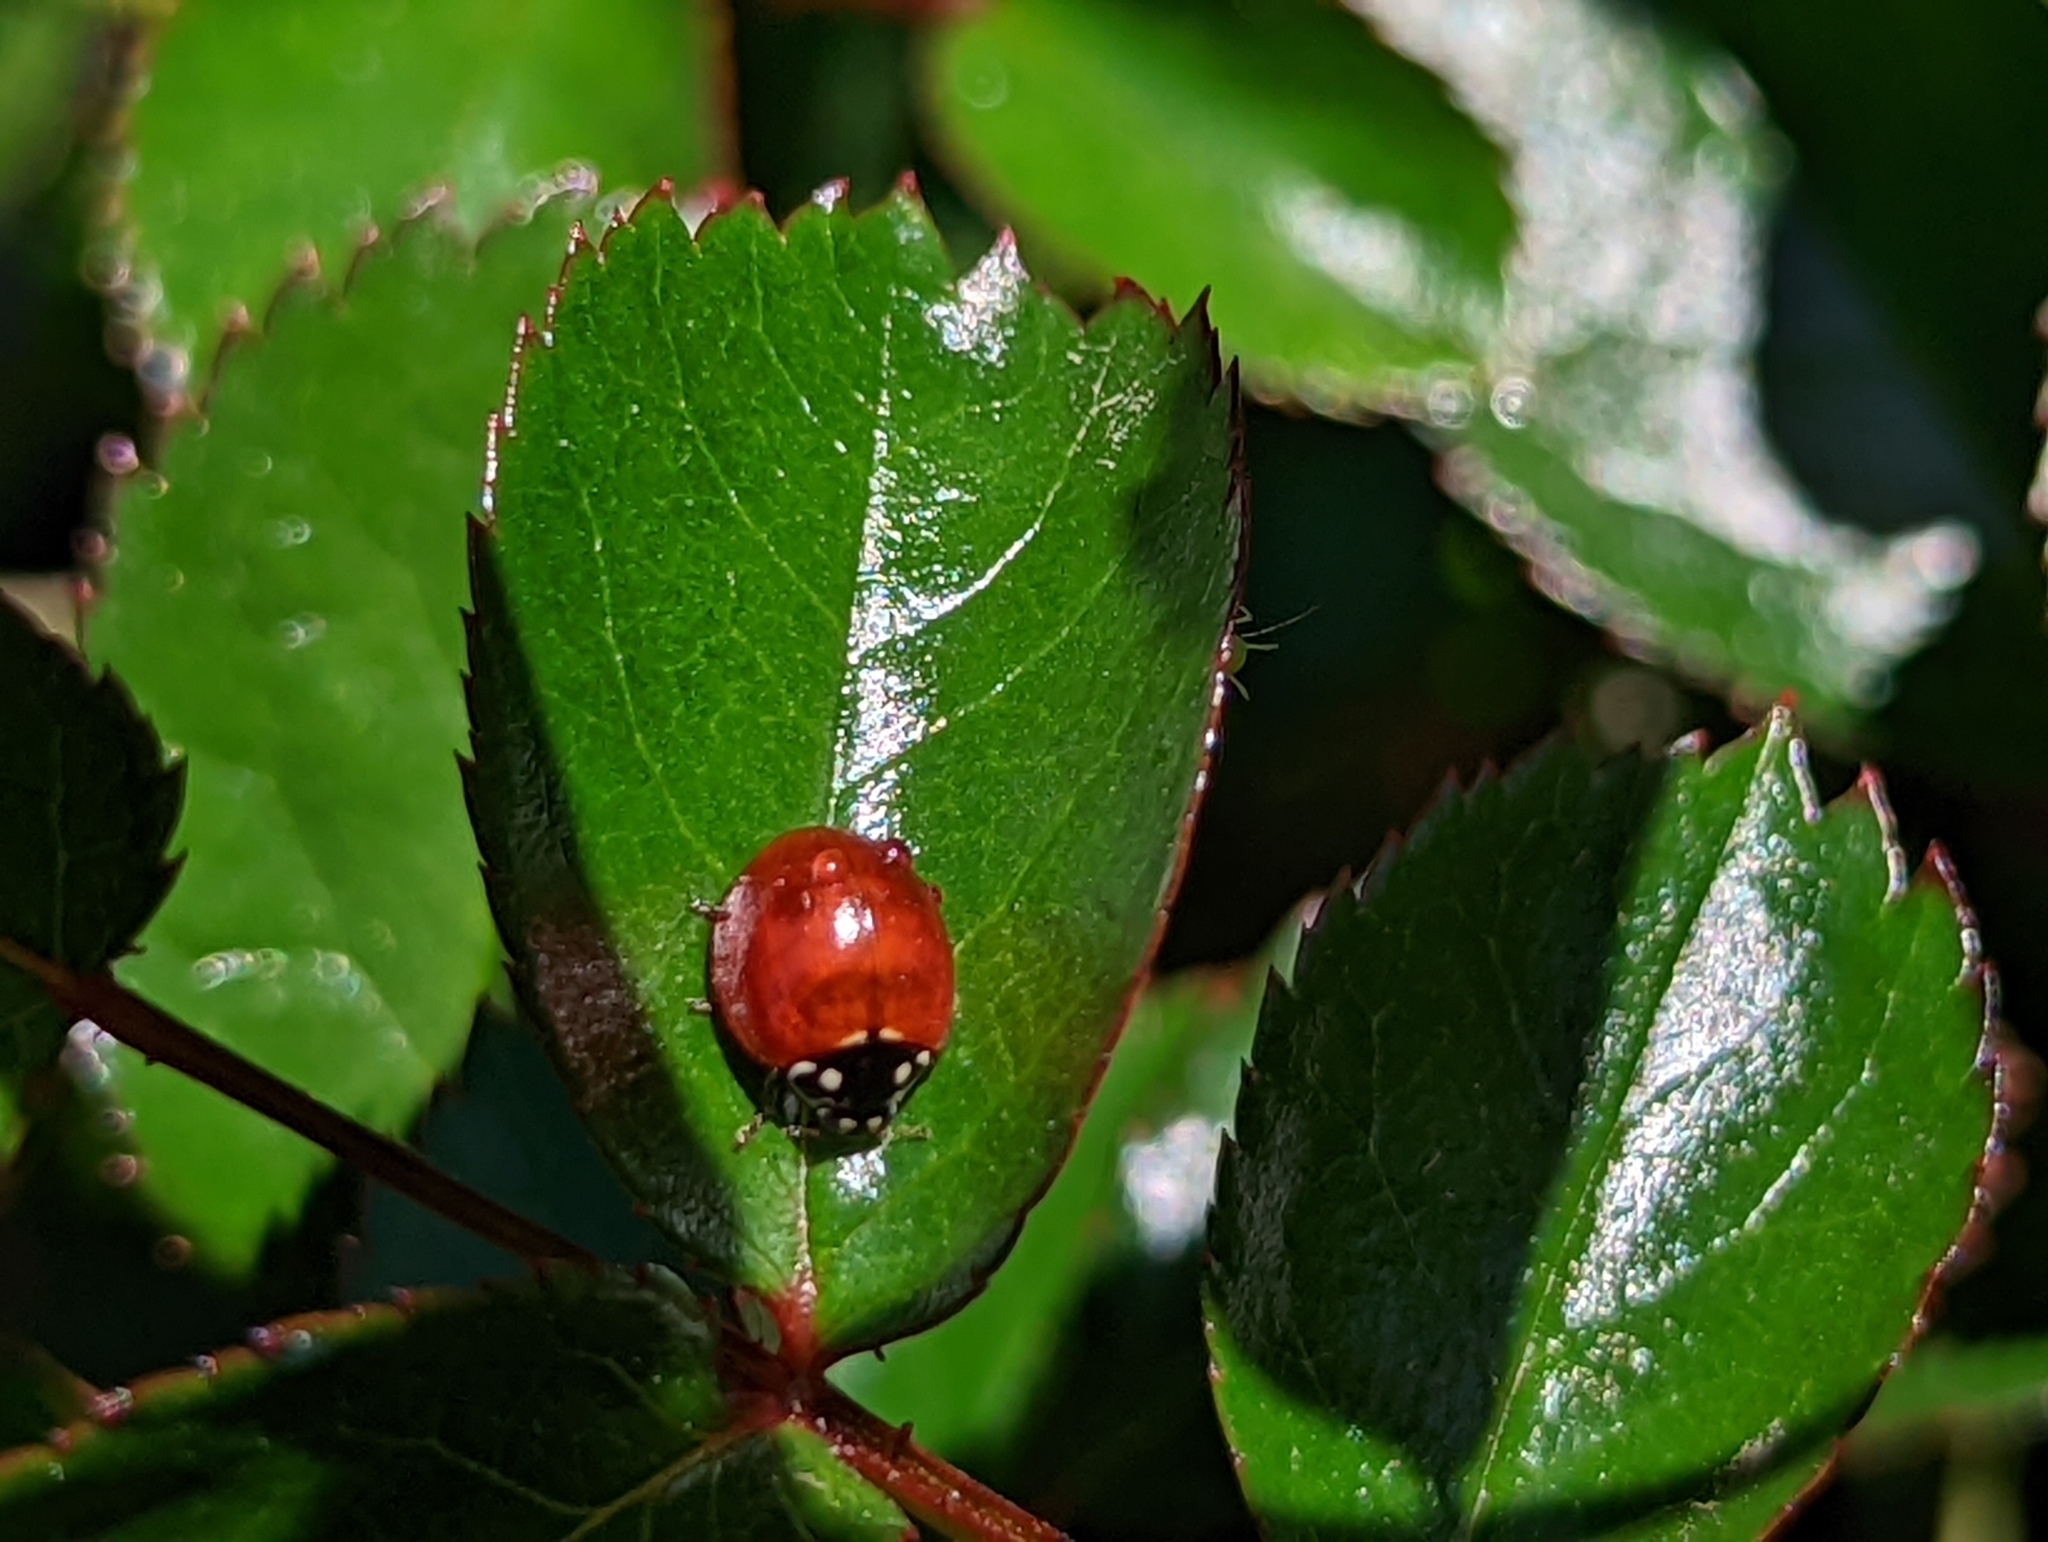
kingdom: Animalia
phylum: Arthropoda
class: Insecta
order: Coleoptera
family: Coccinellidae
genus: Cycloneda
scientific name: Cycloneda sanguinea
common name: Ladybird beetle
